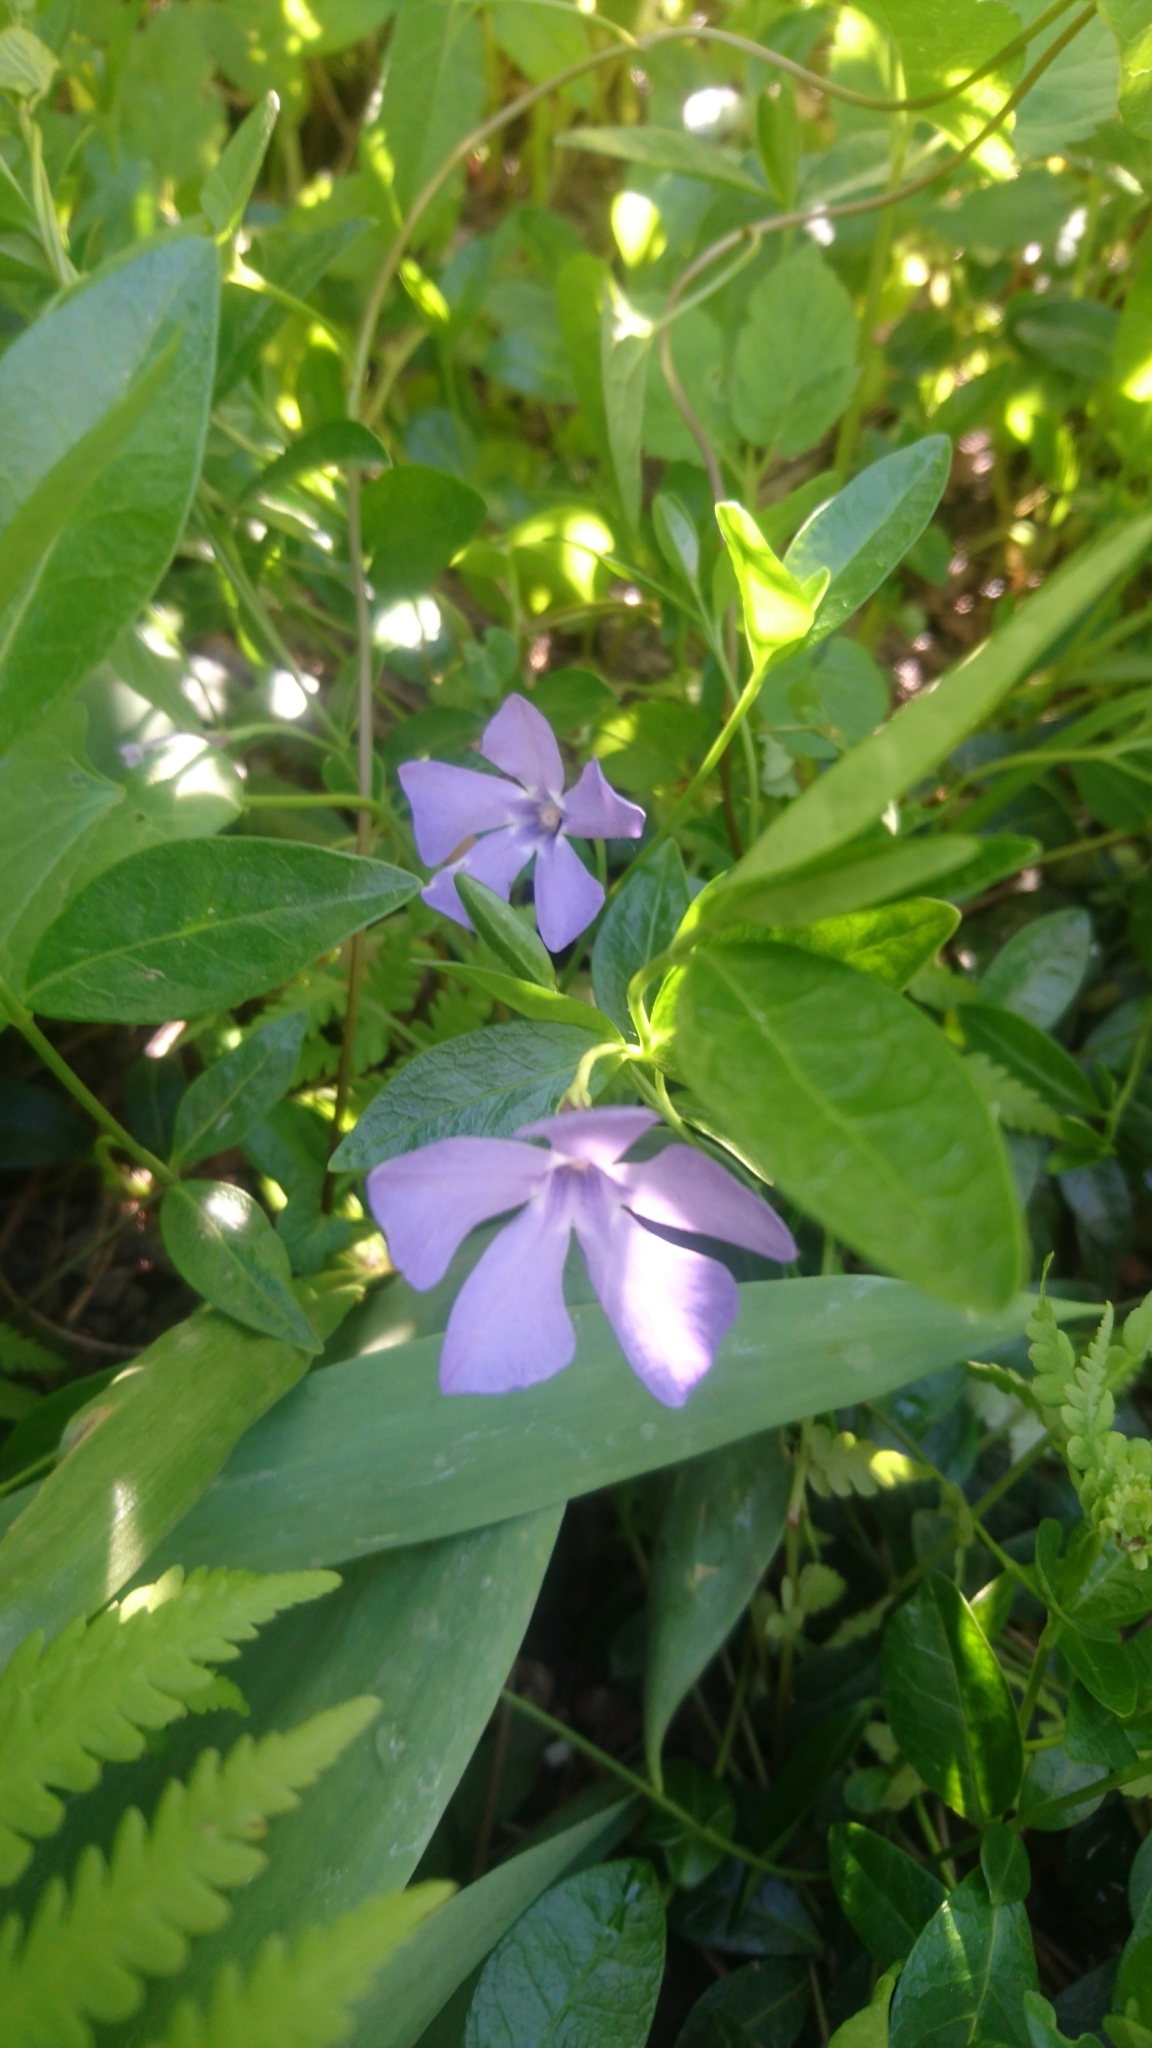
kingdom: Plantae
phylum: Tracheophyta
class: Magnoliopsida
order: Gentianales
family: Apocynaceae
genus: Vinca
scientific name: Vinca minor
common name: Lesser periwinkle
